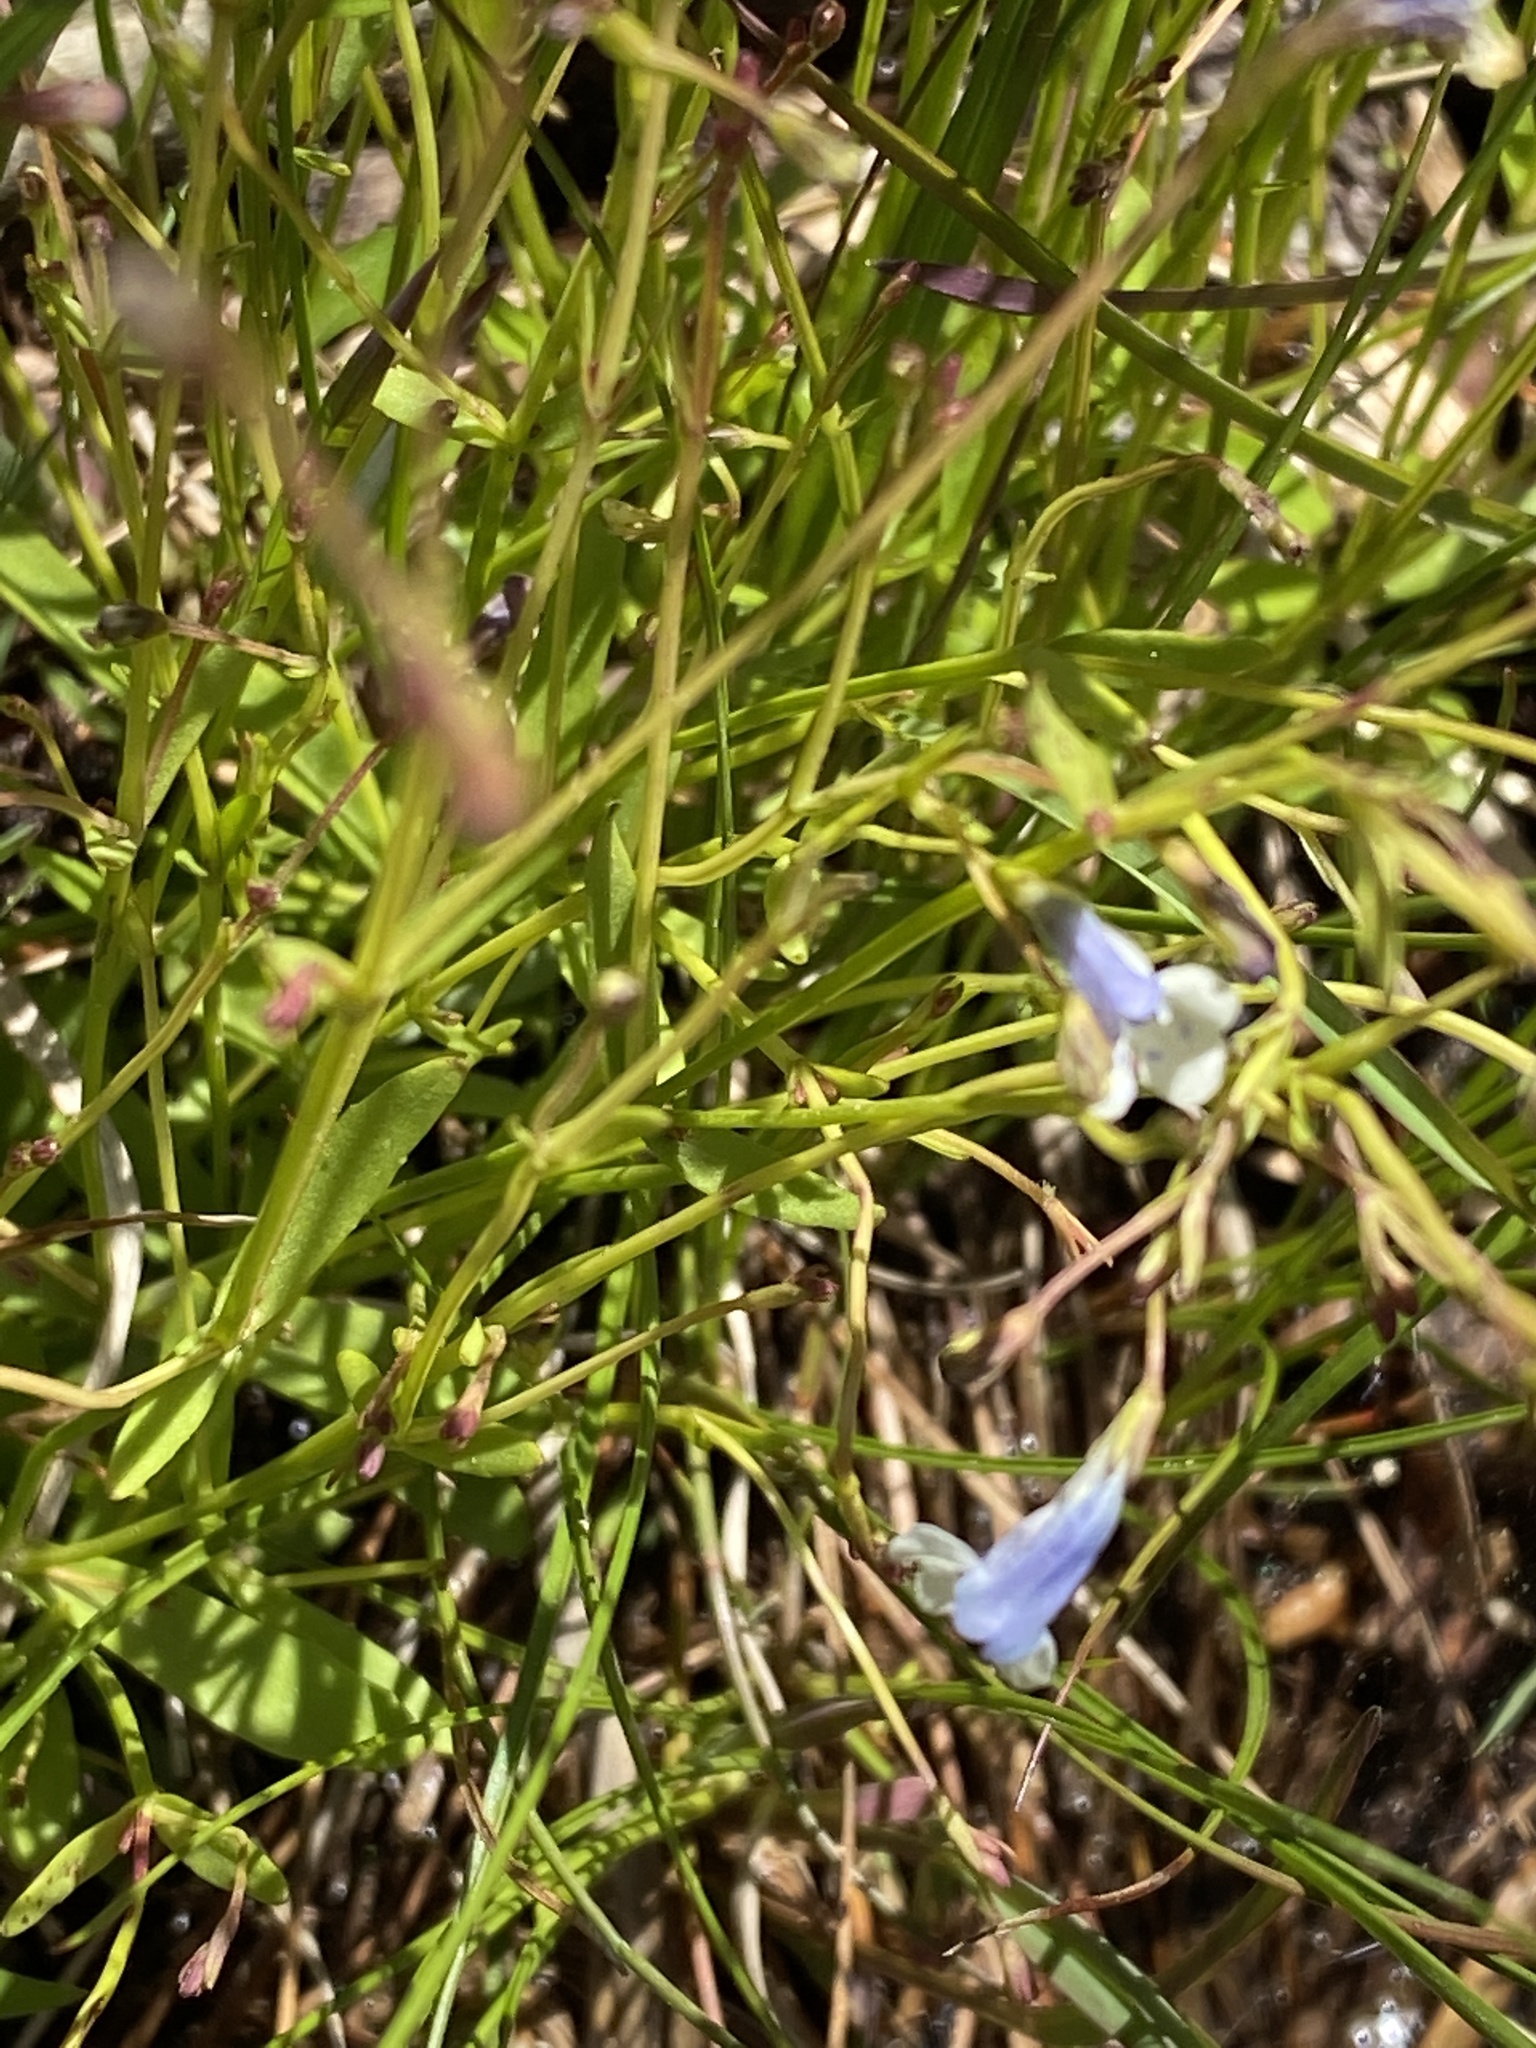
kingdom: Plantae
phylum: Tracheophyta
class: Magnoliopsida
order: Lamiales
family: Linderniaceae
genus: Lindernia
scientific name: Lindernia monticola
